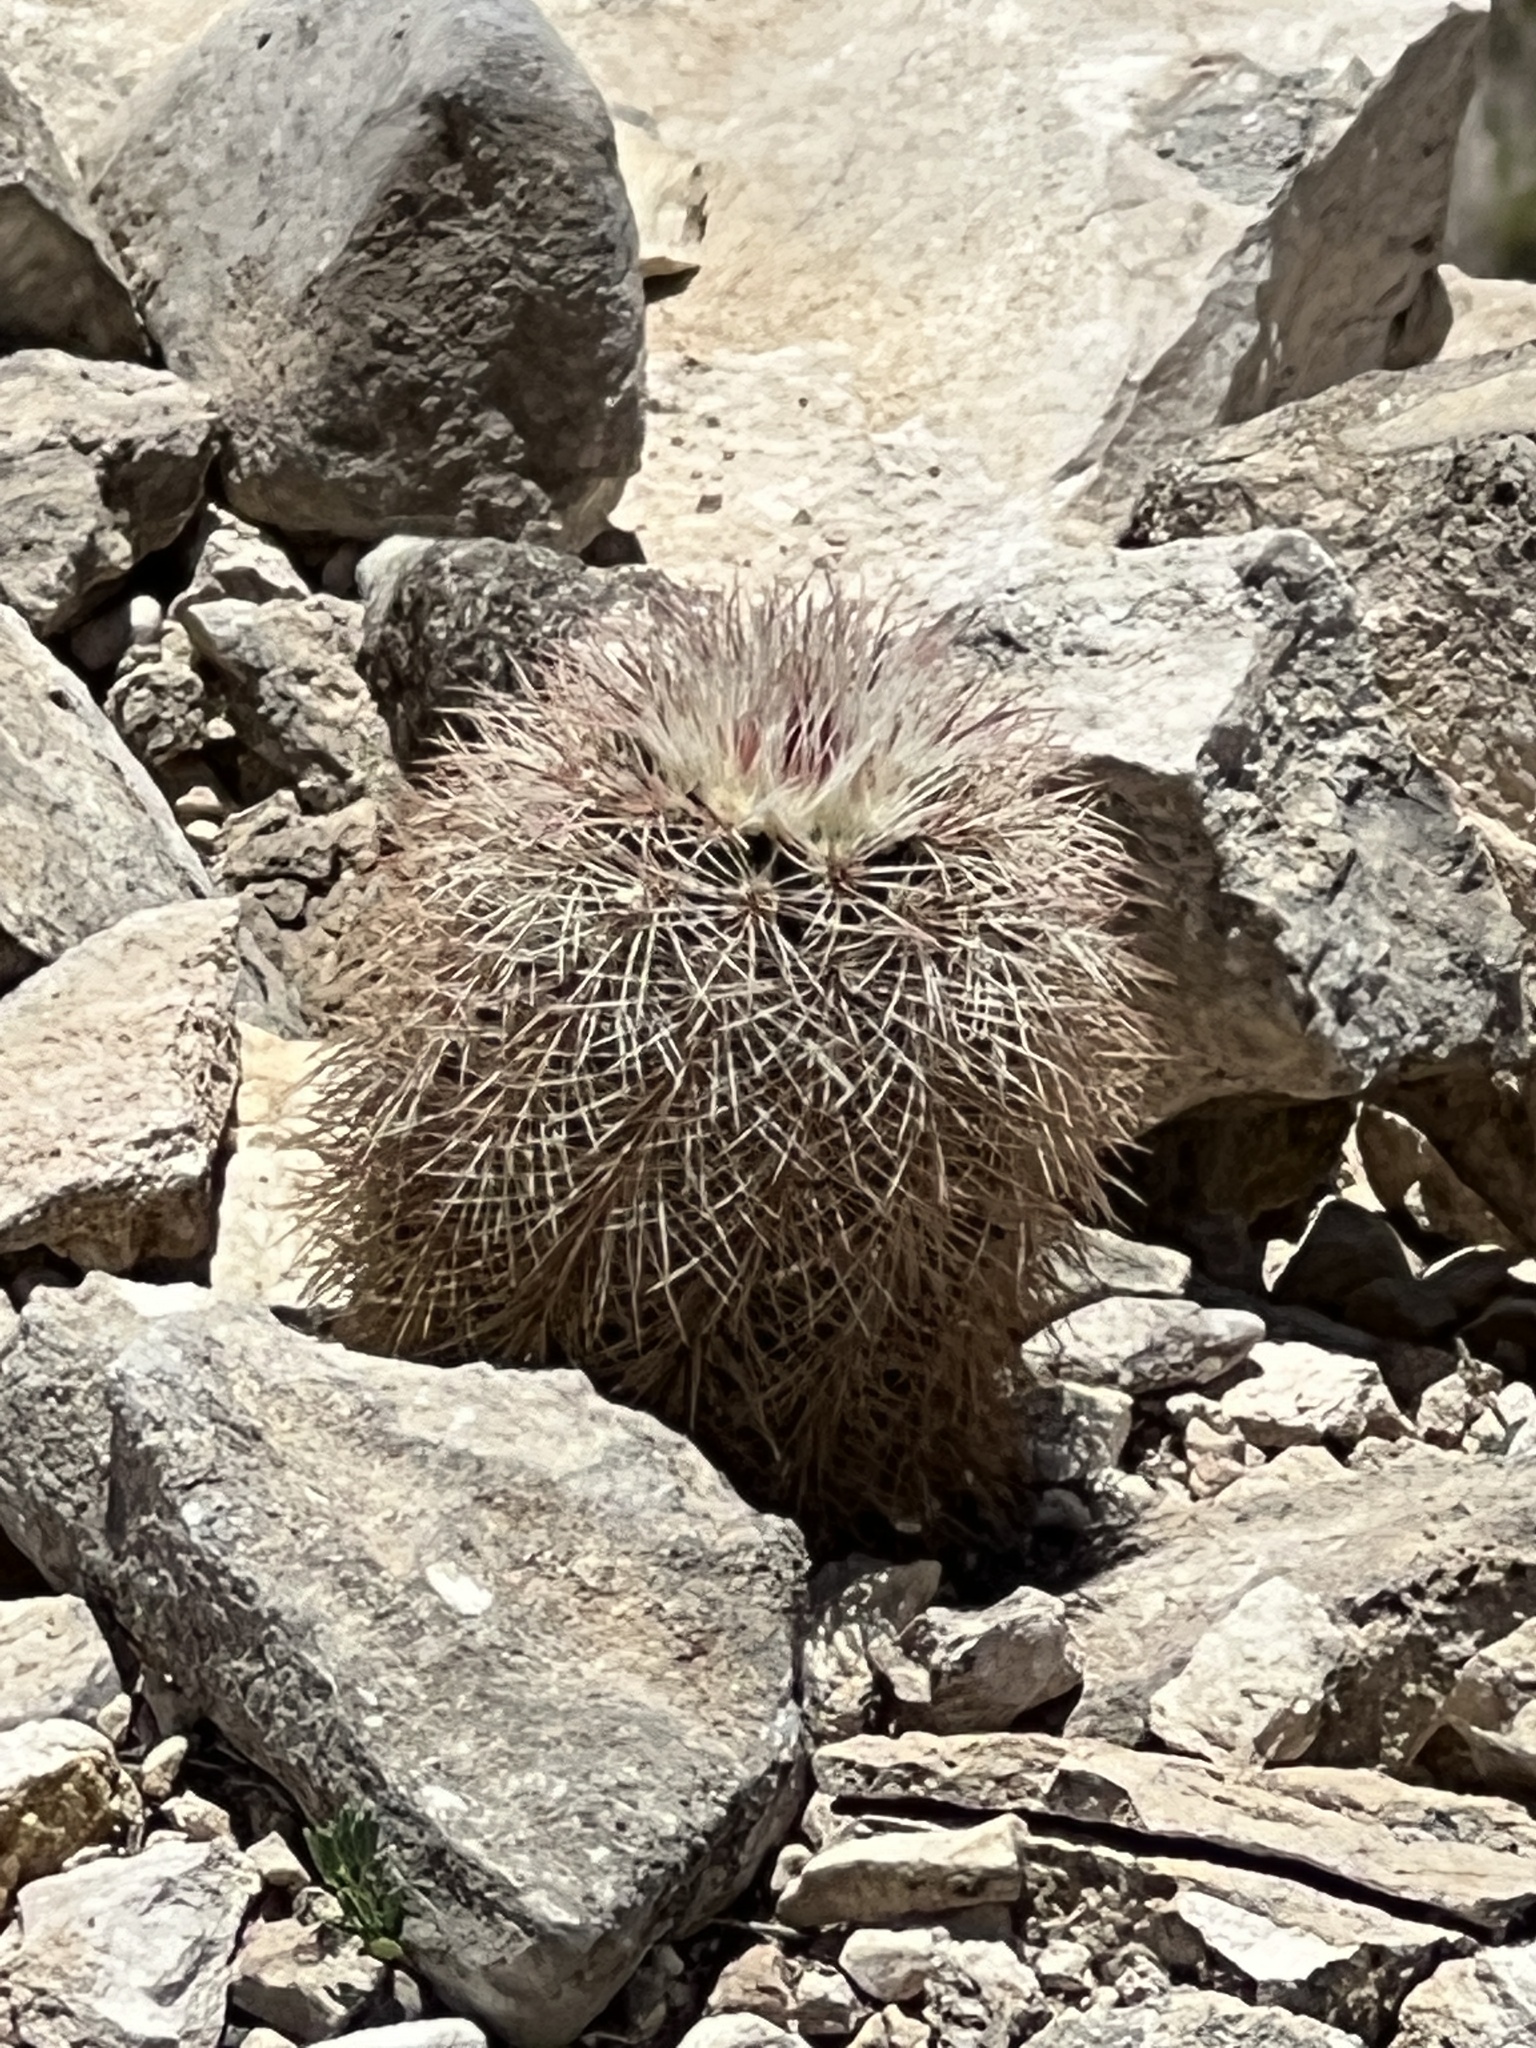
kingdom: Plantae
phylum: Tracheophyta
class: Magnoliopsida
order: Caryophyllales
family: Cactaceae
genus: Echinocereus
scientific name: Echinocereus dasyacanthus
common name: Spiny hedgehog cactus
